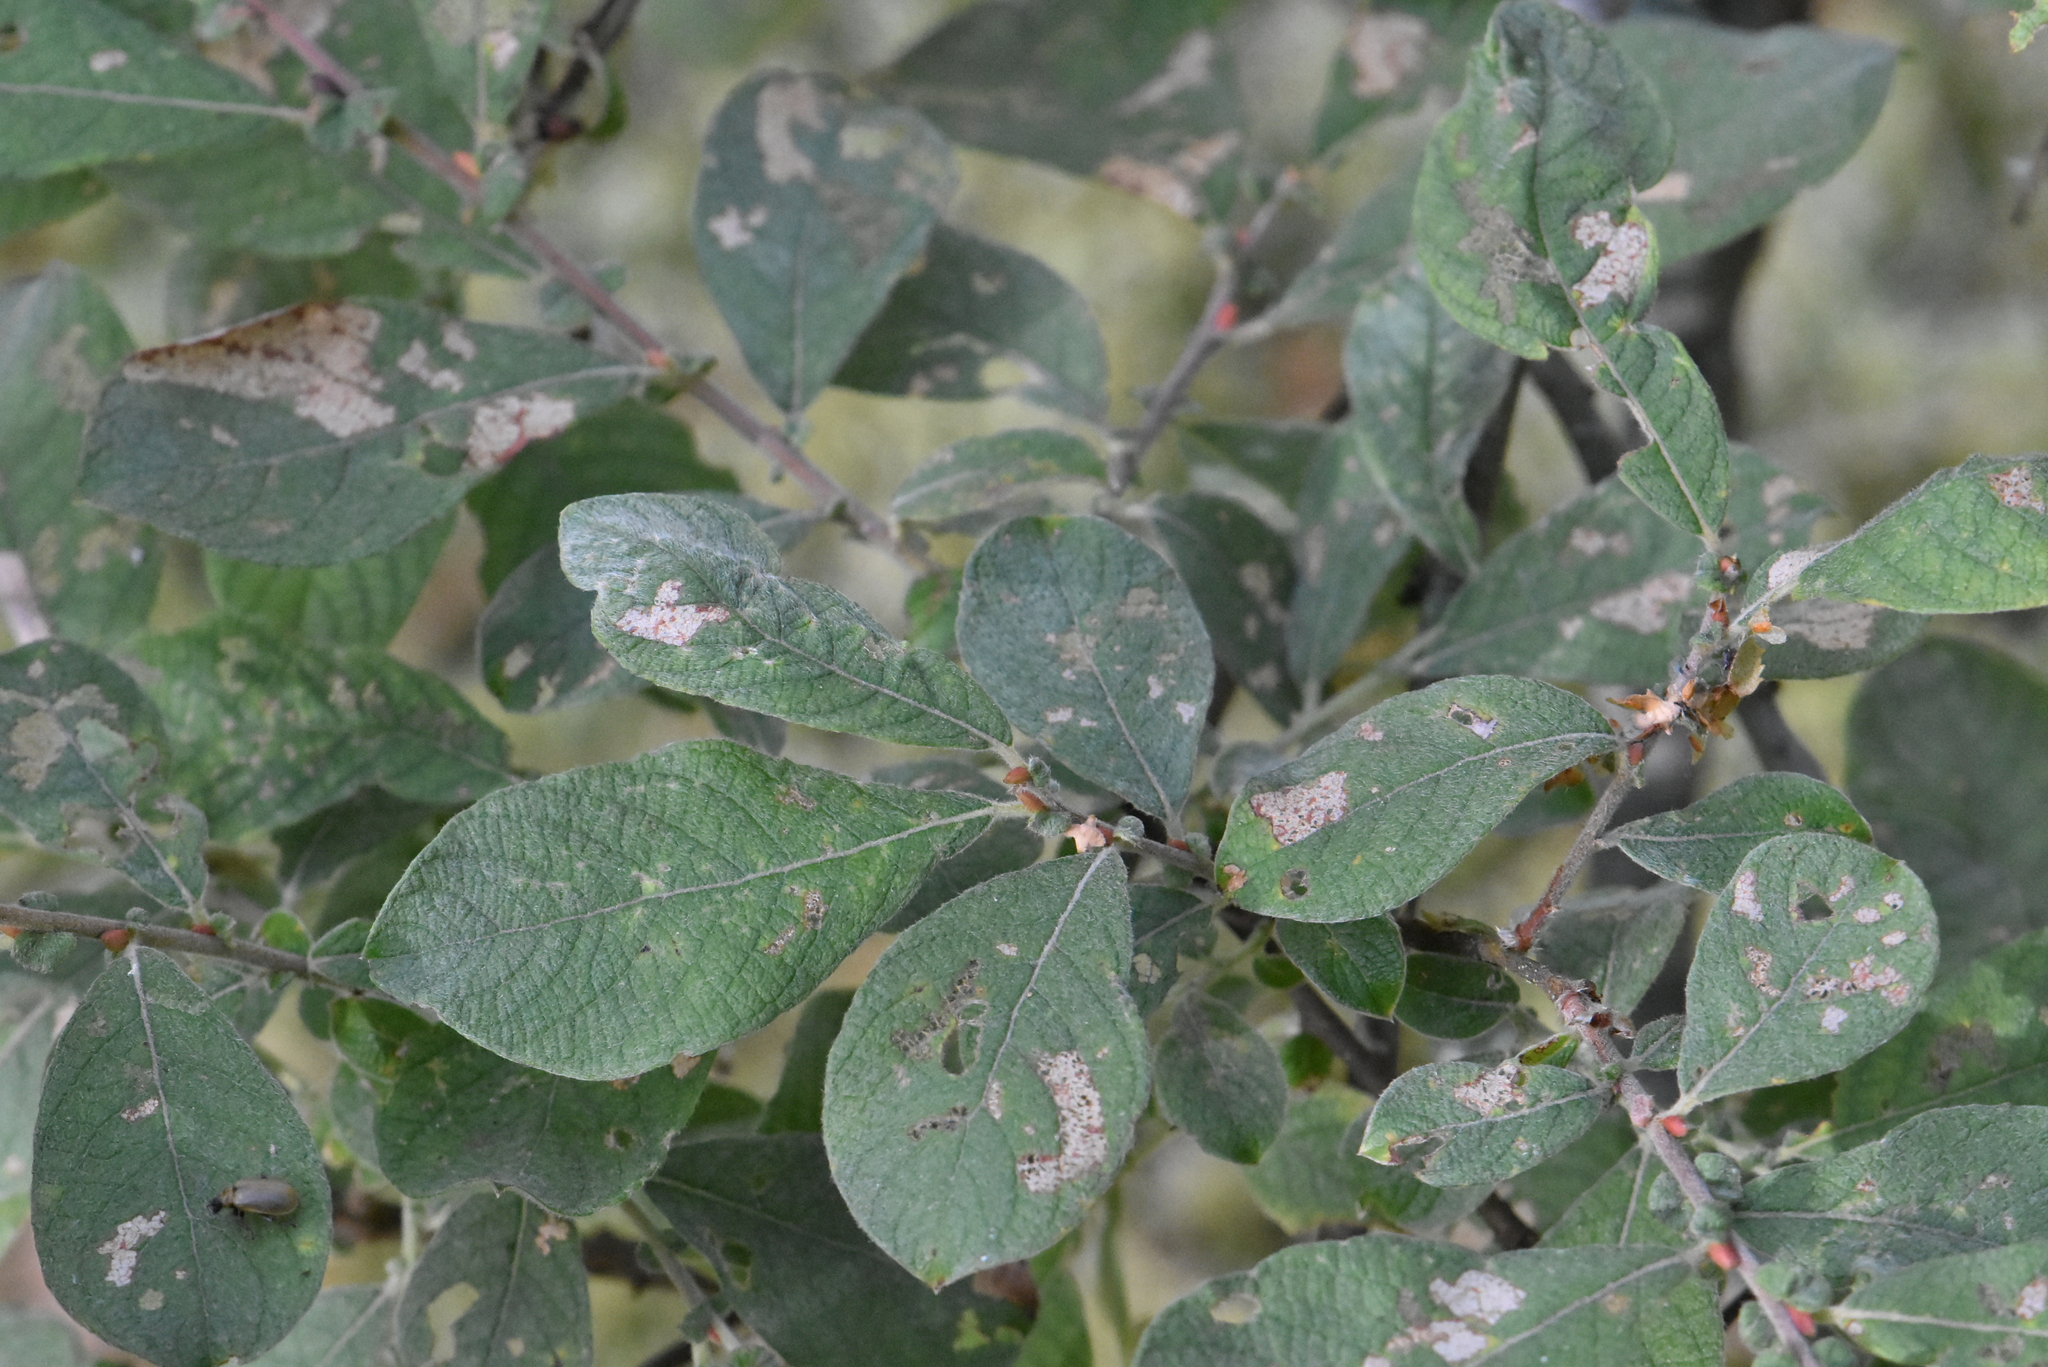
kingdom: Plantae
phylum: Tracheophyta
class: Magnoliopsida
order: Malpighiales
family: Salicaceae
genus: Salix
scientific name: Salix aurita
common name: Eared willow
